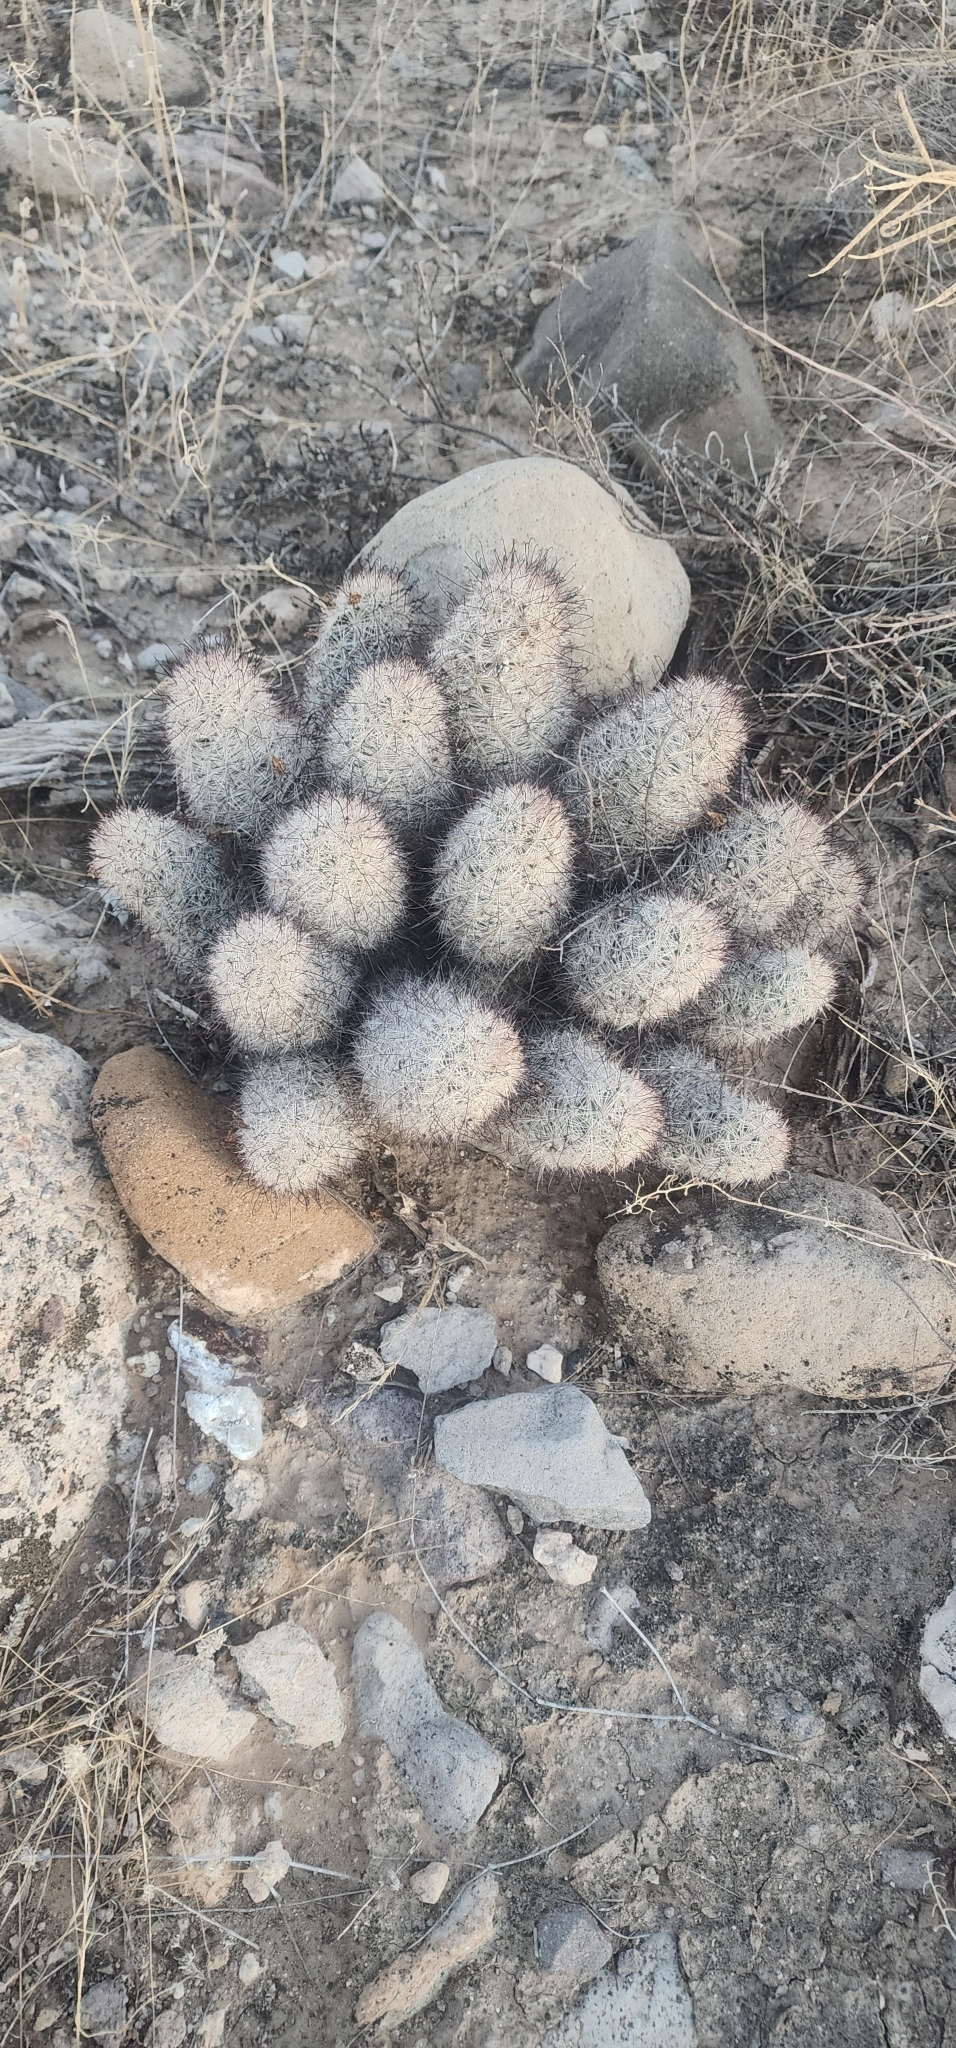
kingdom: Plantae
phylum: Tracheophyta
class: Magnoliopsida
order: Caryophyllales
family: Cactaceae
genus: Cochemiea
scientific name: Cochemiea grahamii
